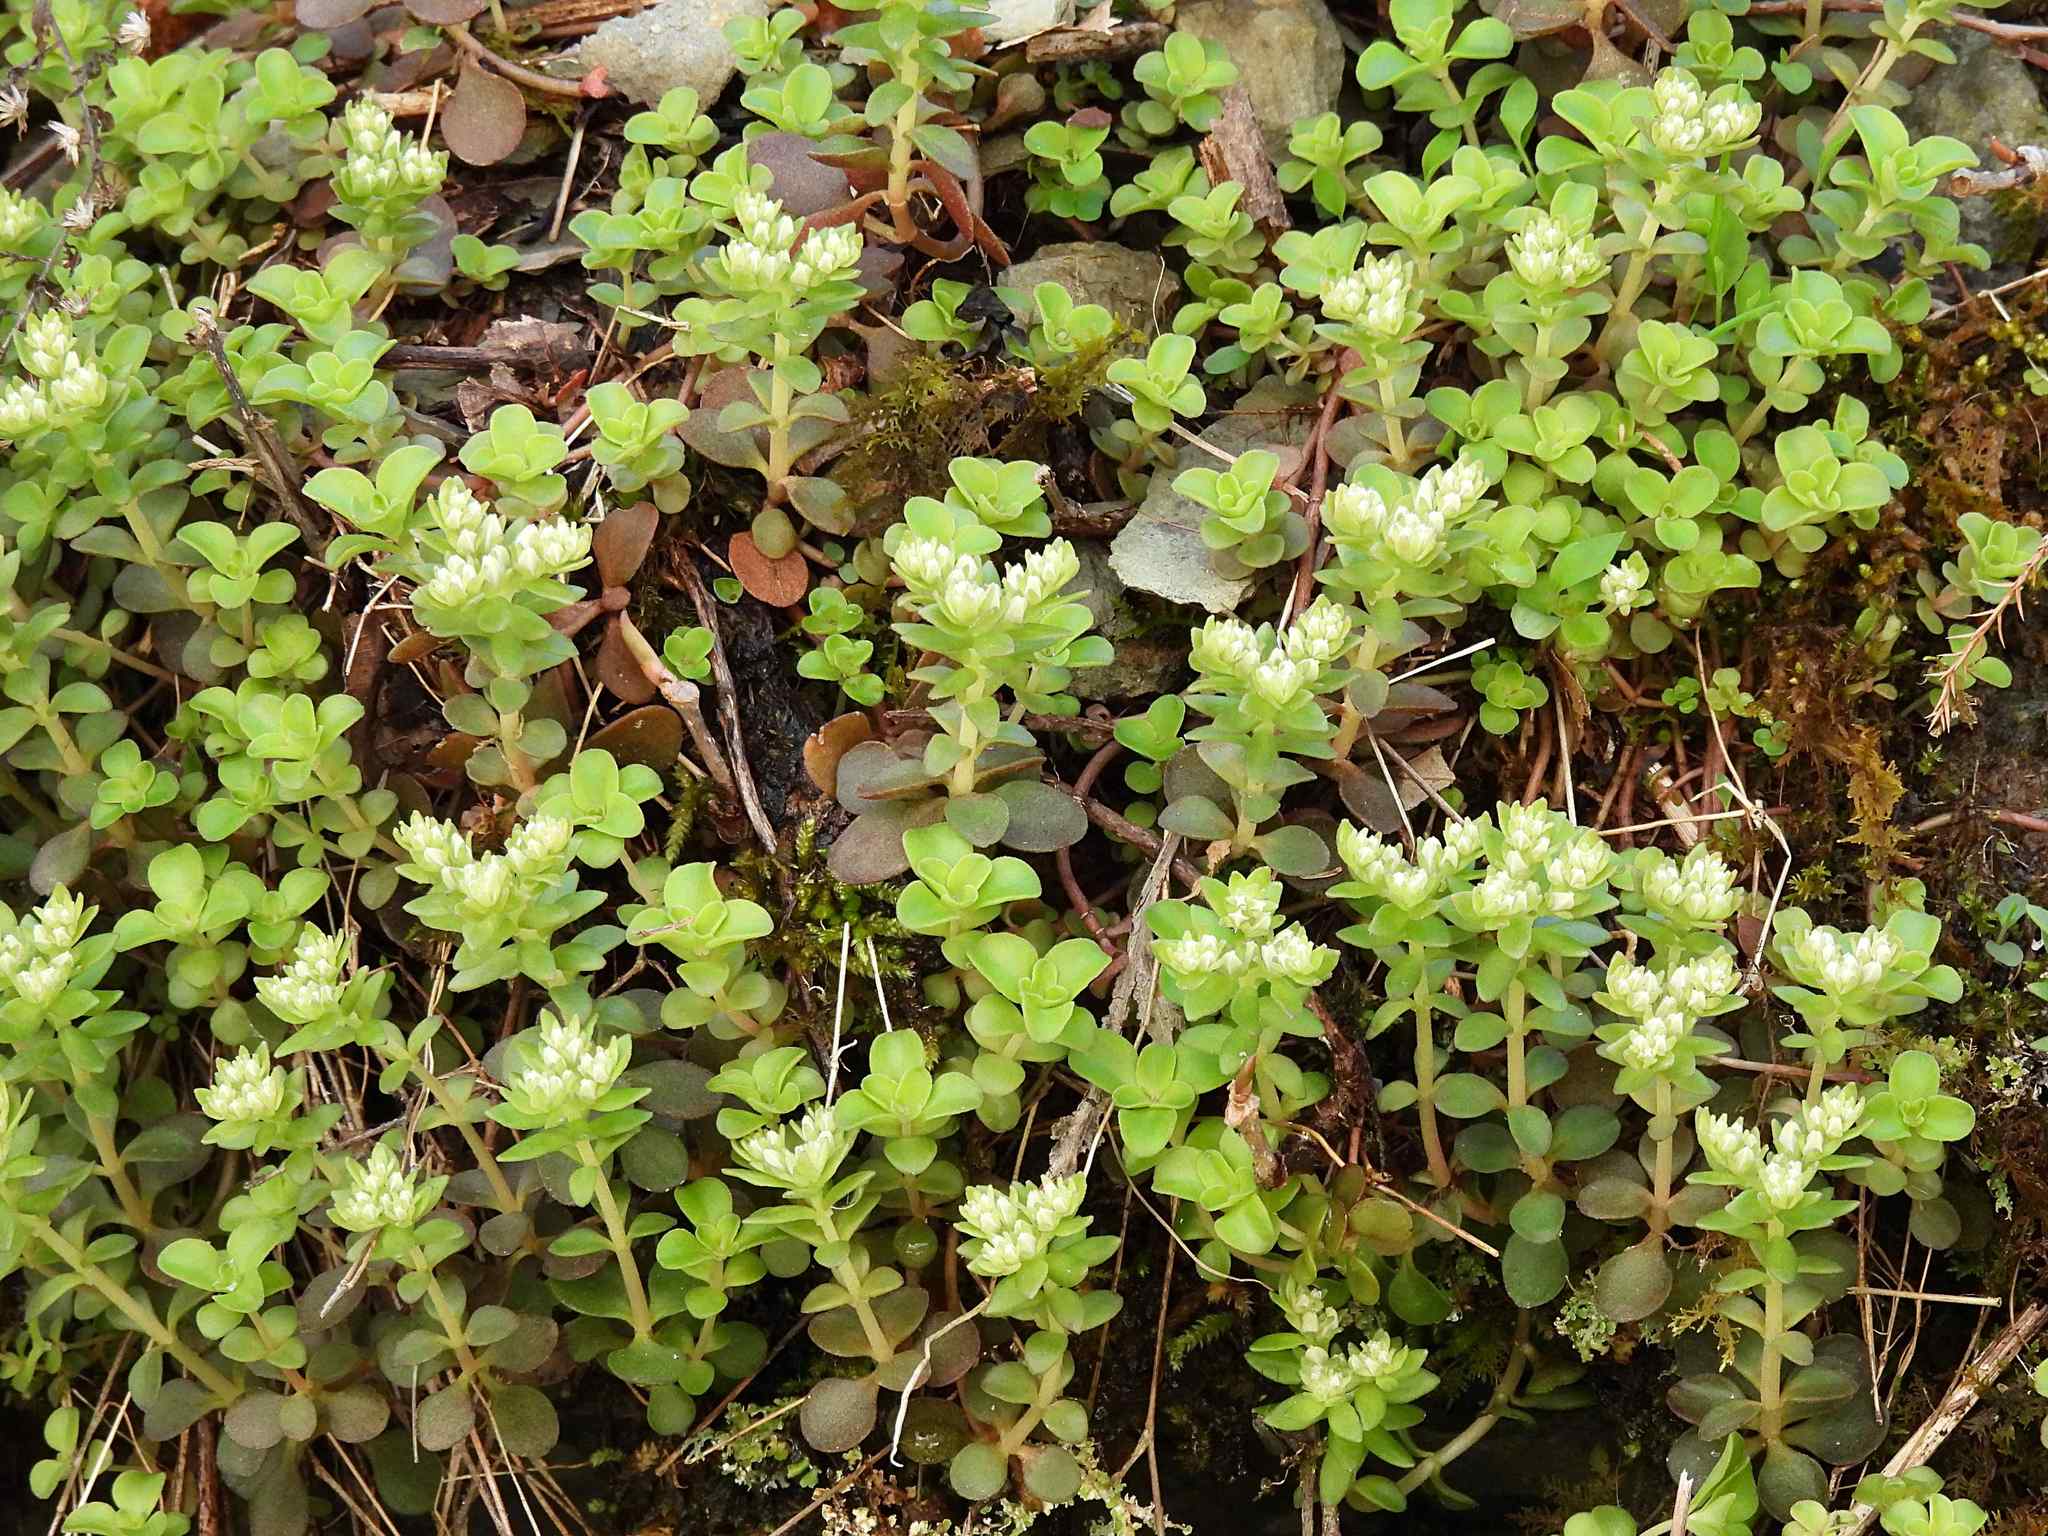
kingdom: Plantae
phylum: Tracheophyta
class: Magnoliopsida
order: Saxifragales
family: Crassulaceae
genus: Sedum
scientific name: Sedum ternatum
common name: Wild stonecrop
